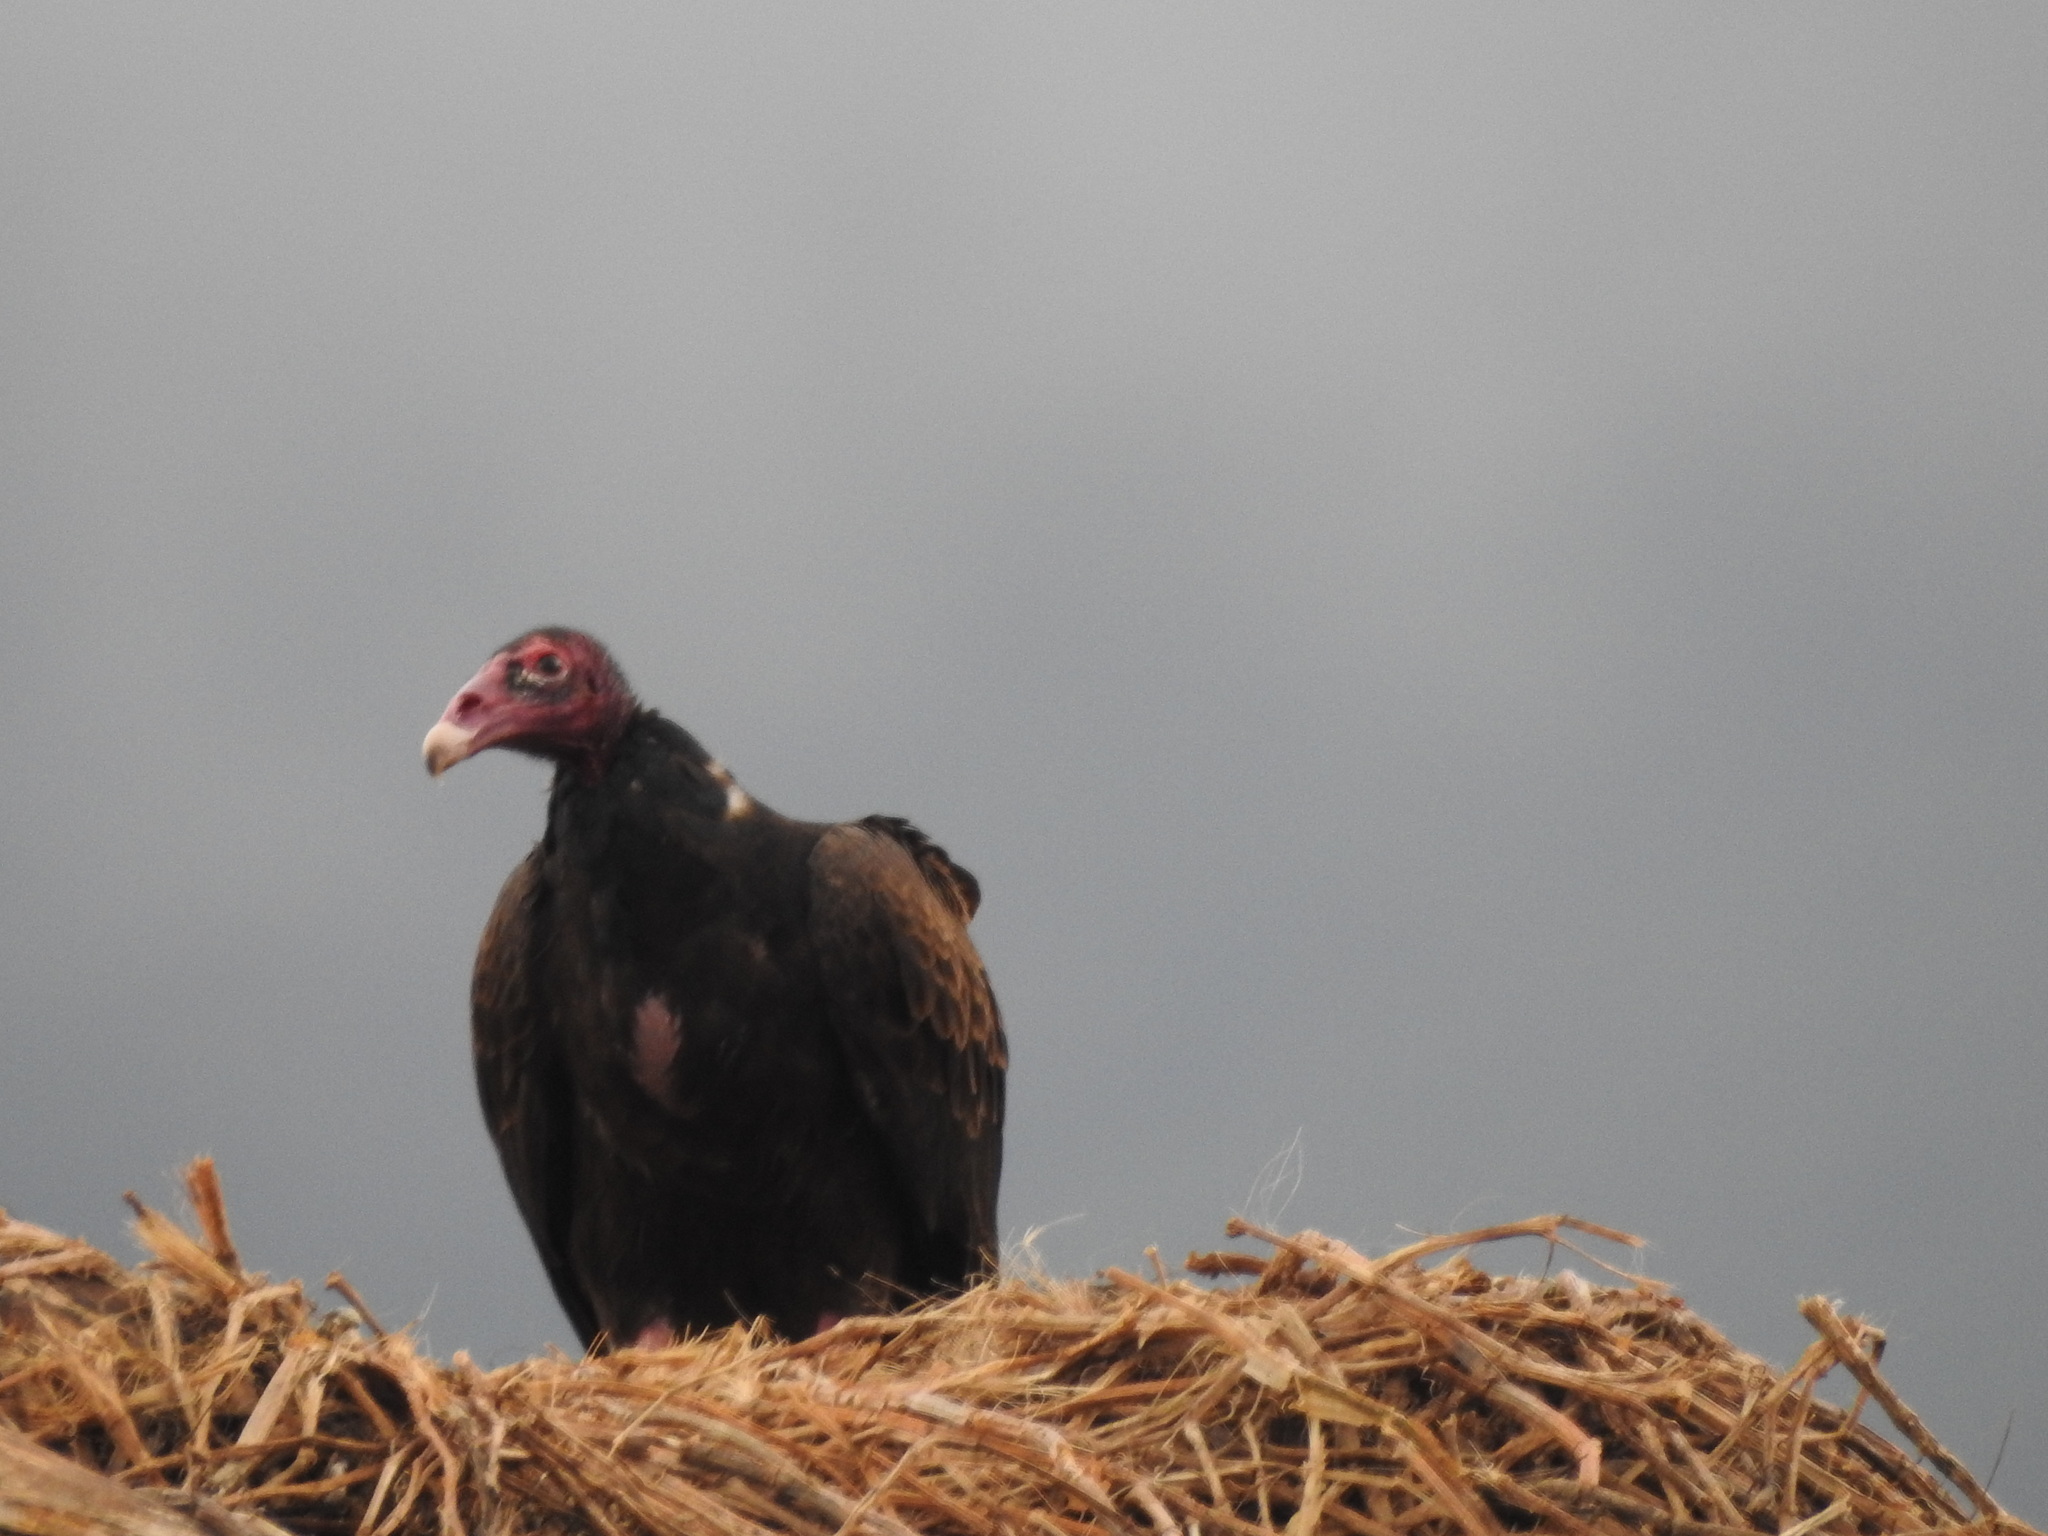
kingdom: Animalia
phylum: Chordata
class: Aves
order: Accipitriformes
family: Cathartidae
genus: Cathartes
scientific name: Cathartes aura
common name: Turkey vulture
